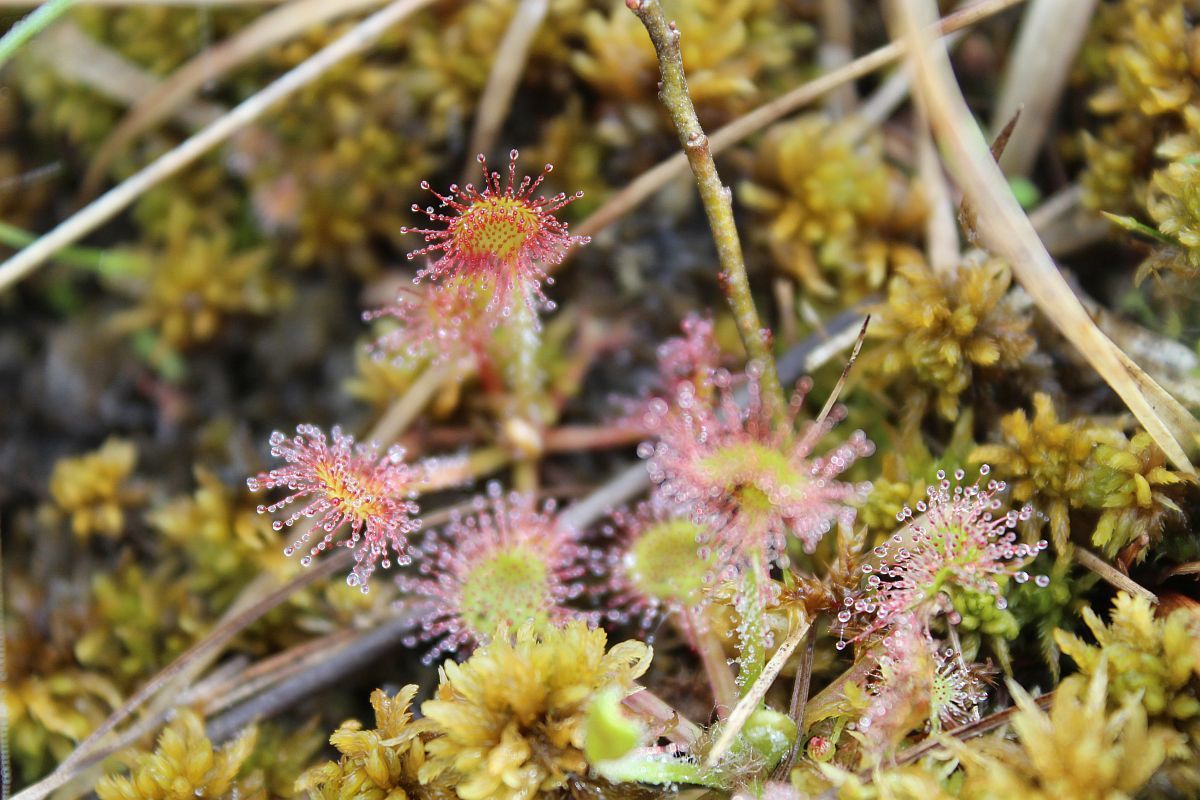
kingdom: Plantae
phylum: Tracheophyta
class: Magnoliopsida
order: Caryophyllales
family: Droseraceae
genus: Drosera
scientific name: Drosera rotundifolia
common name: Round-leaved sundew
